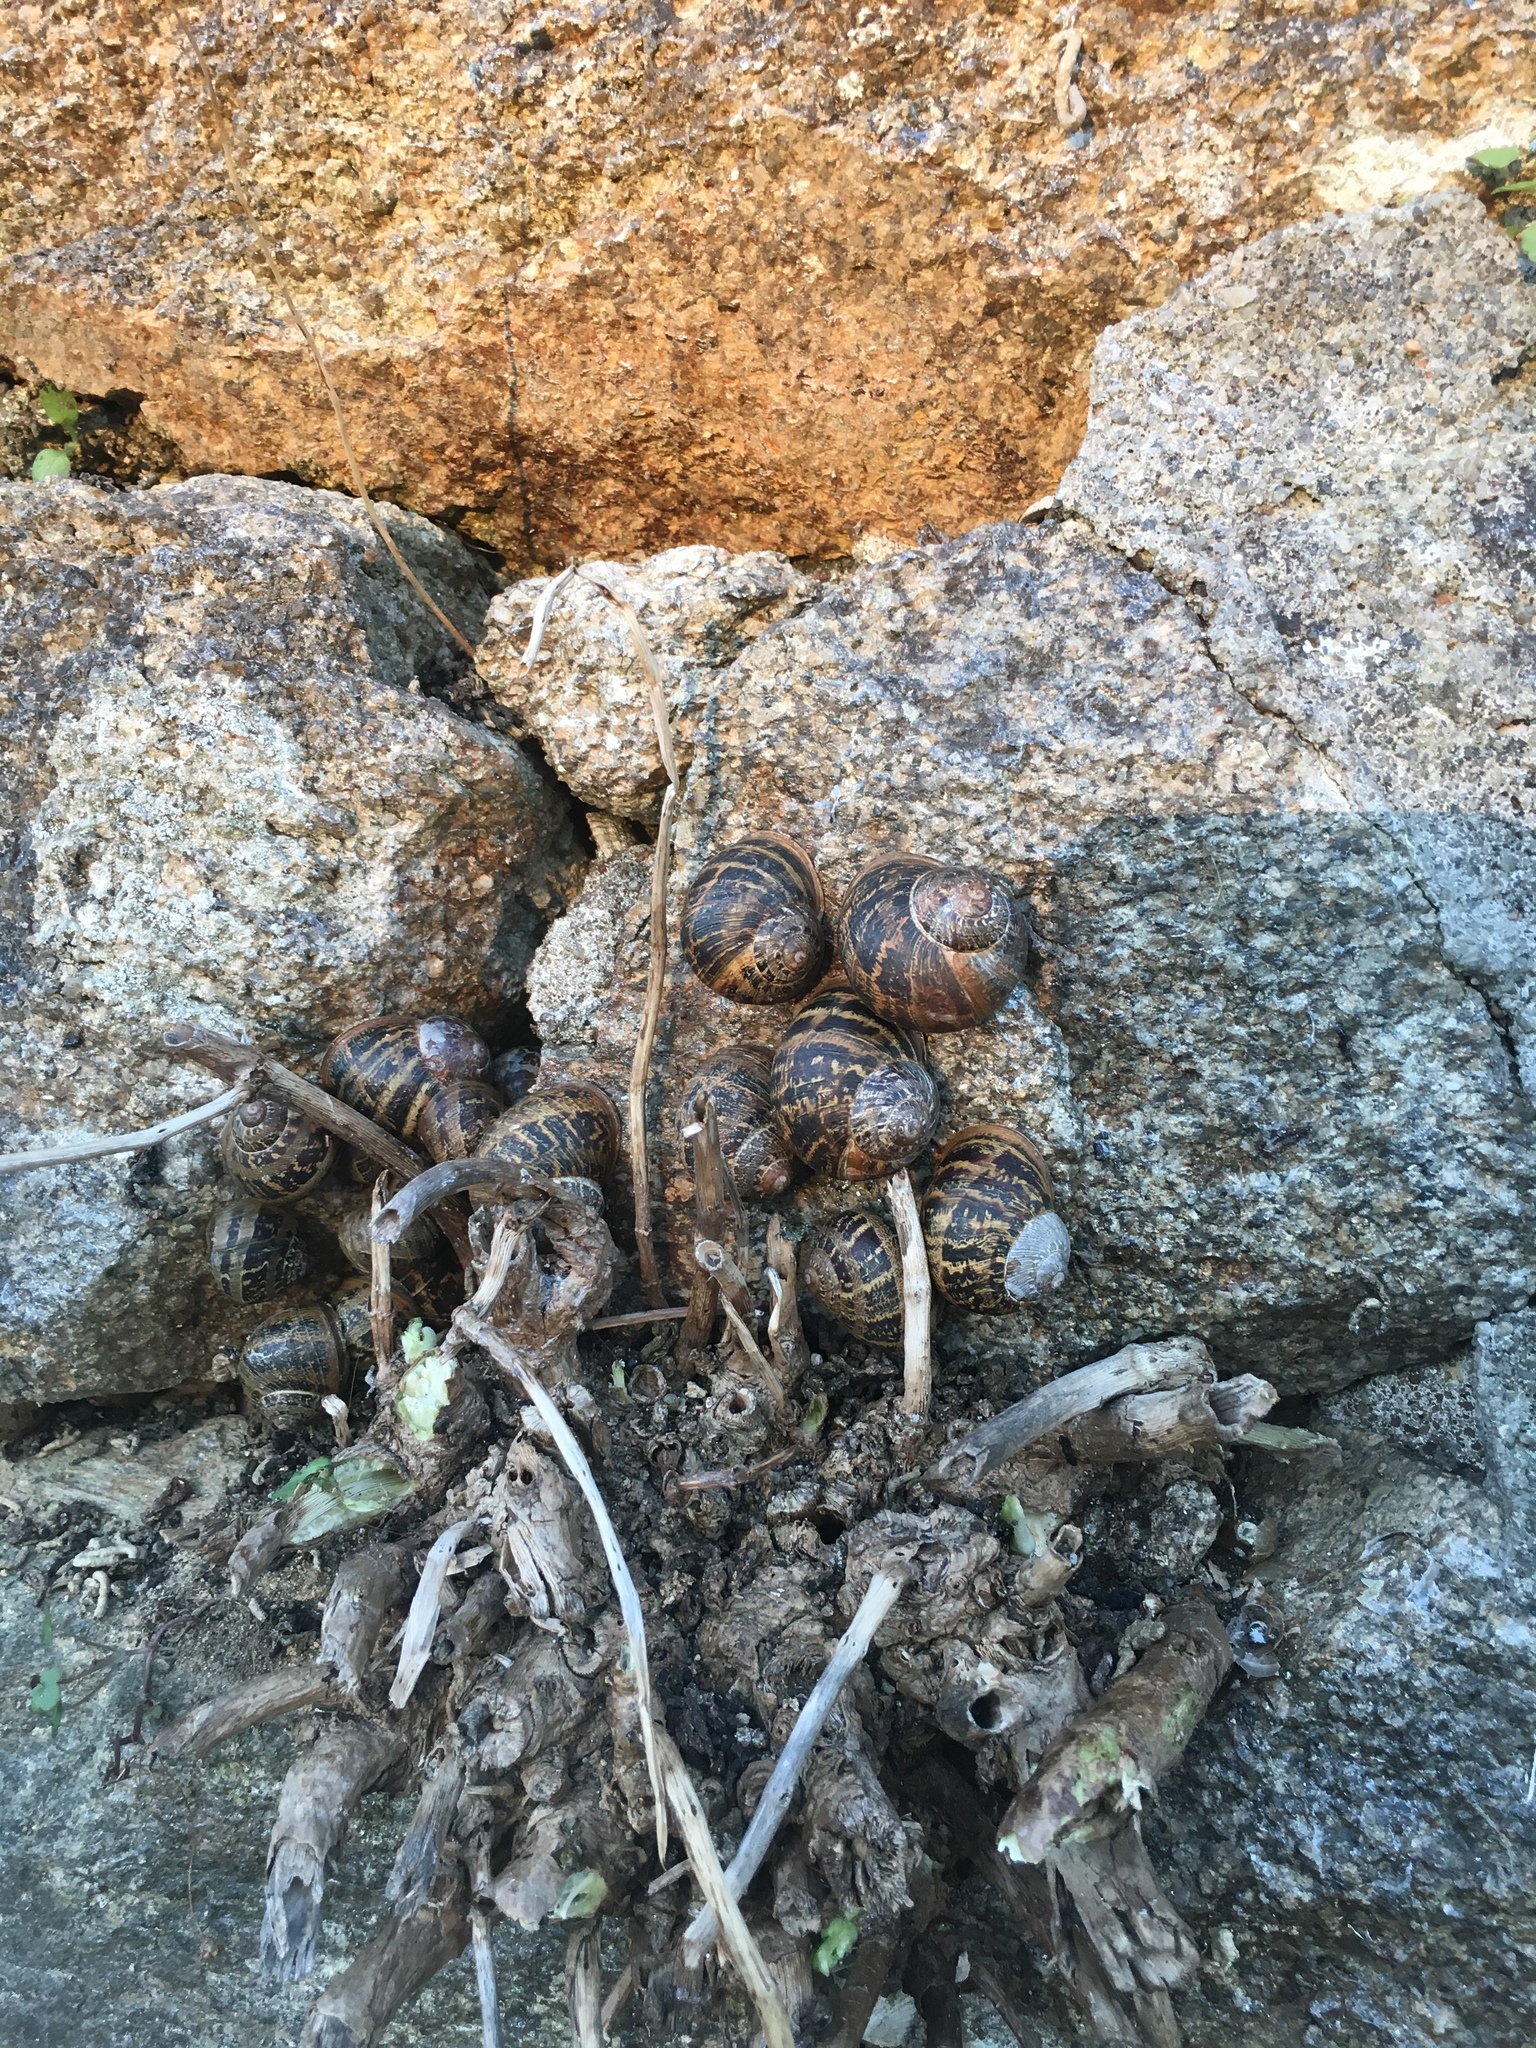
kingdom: Animalia
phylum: Mollusca
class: Gastropoda
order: Stylommatophora
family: Helicidae
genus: Cornu
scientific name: Cornu aspersum
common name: Brown garden snail
